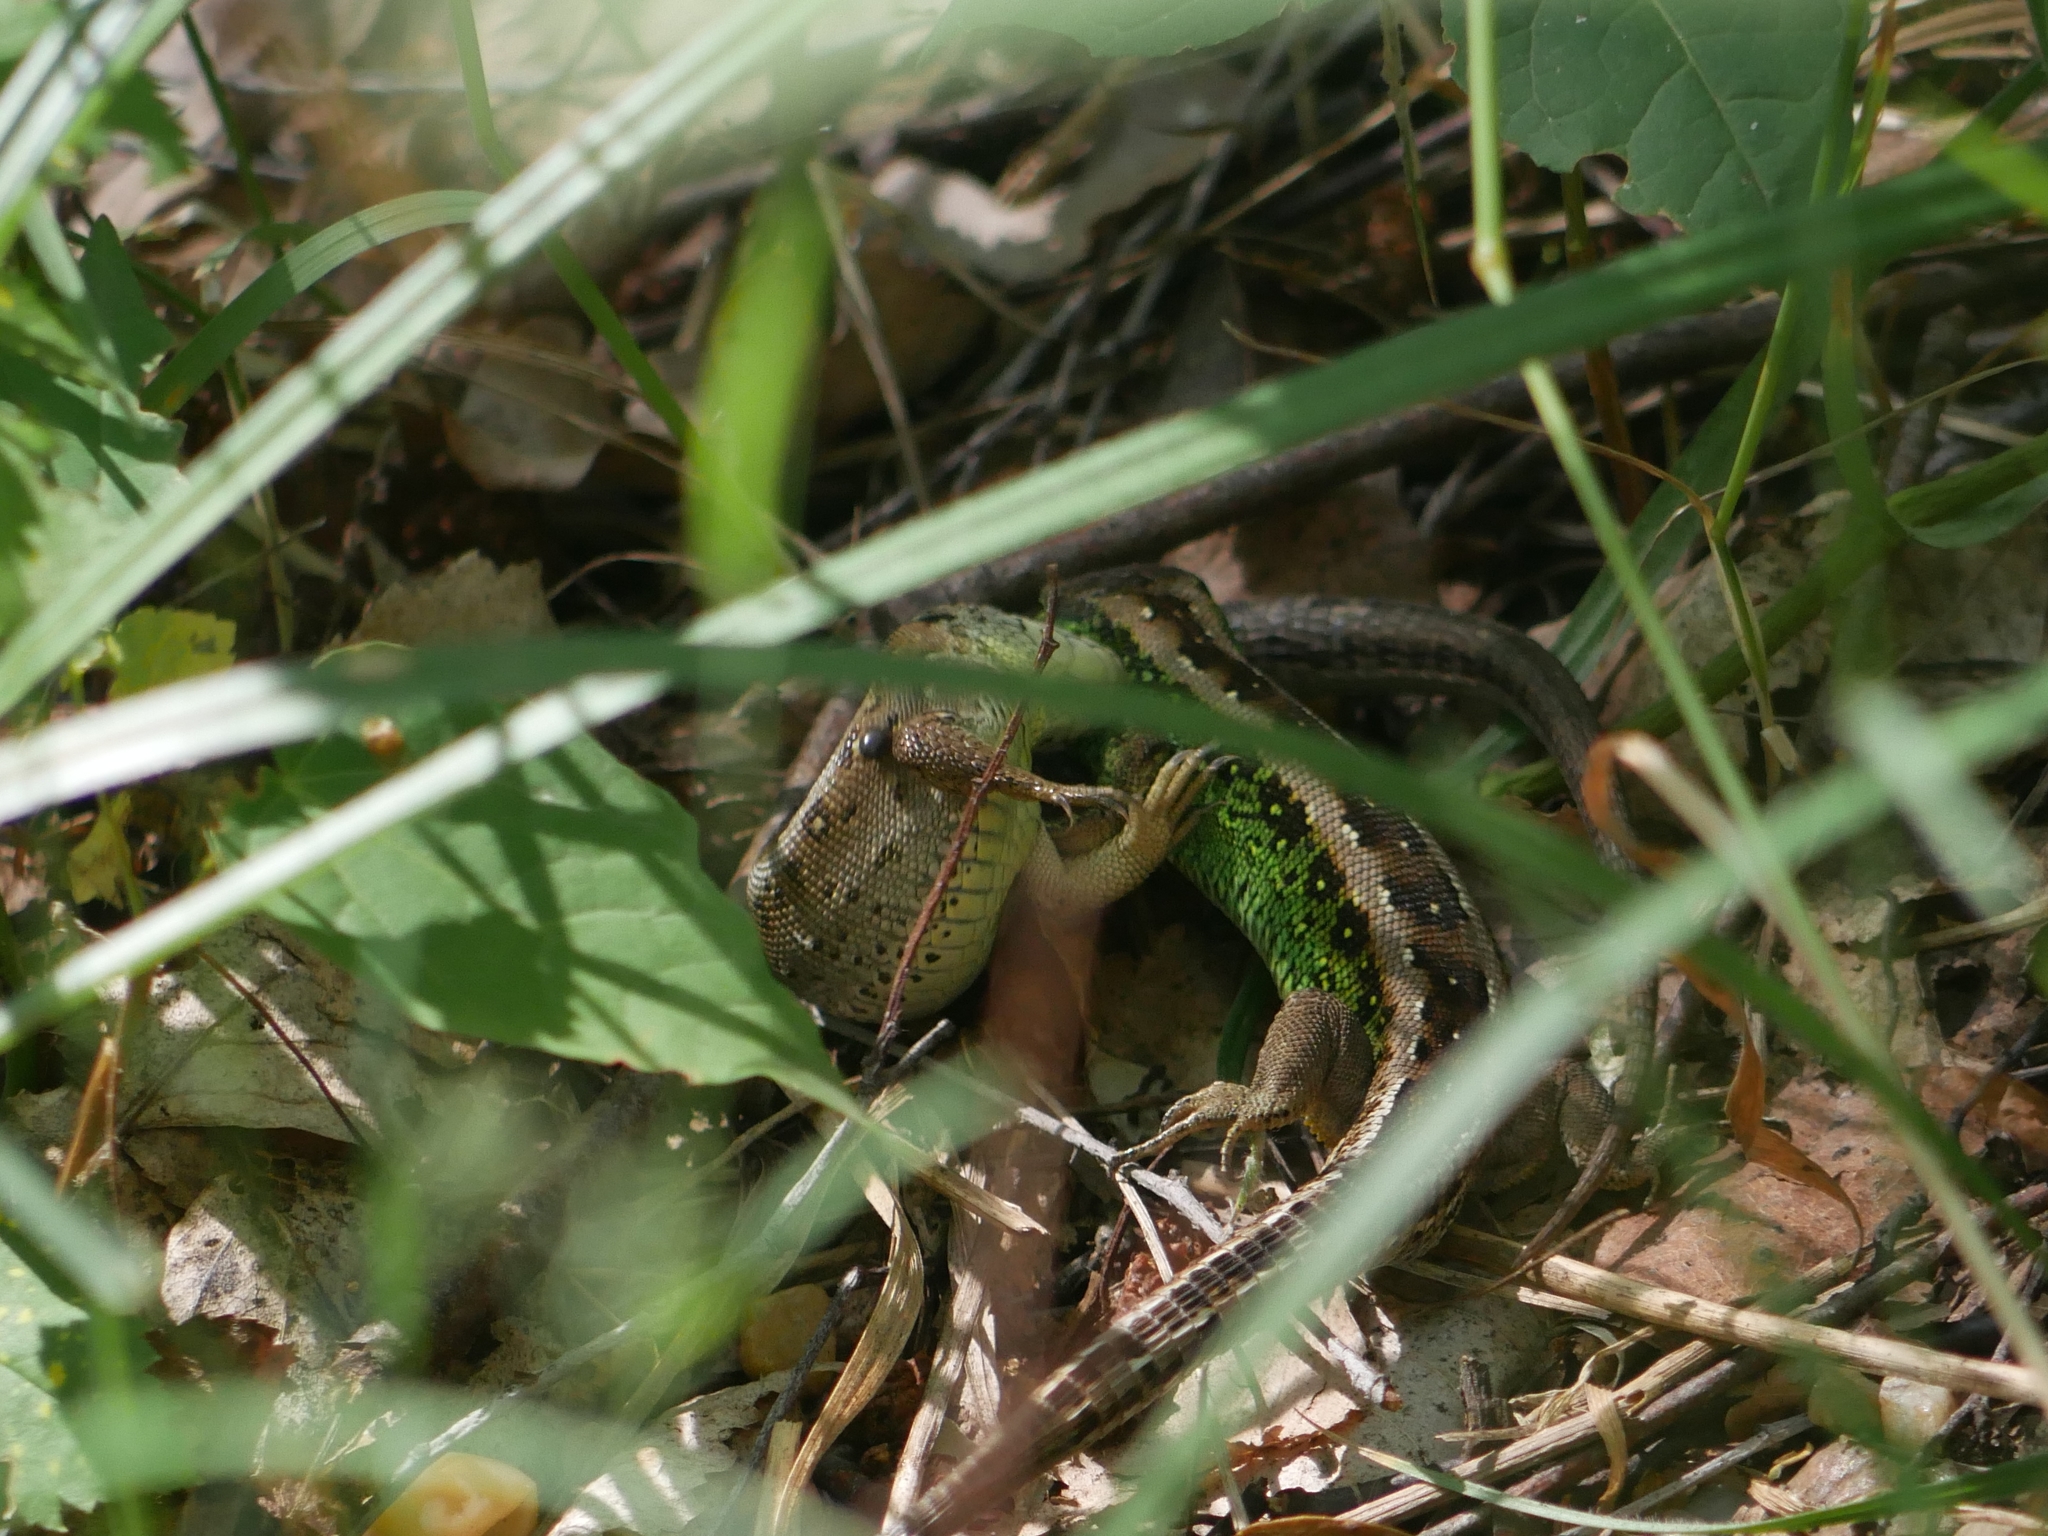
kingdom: Animalia
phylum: Chordata
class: Squamata
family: Lacertidae
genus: Lacerta
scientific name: Lacerta agilis
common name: Sand lizard
